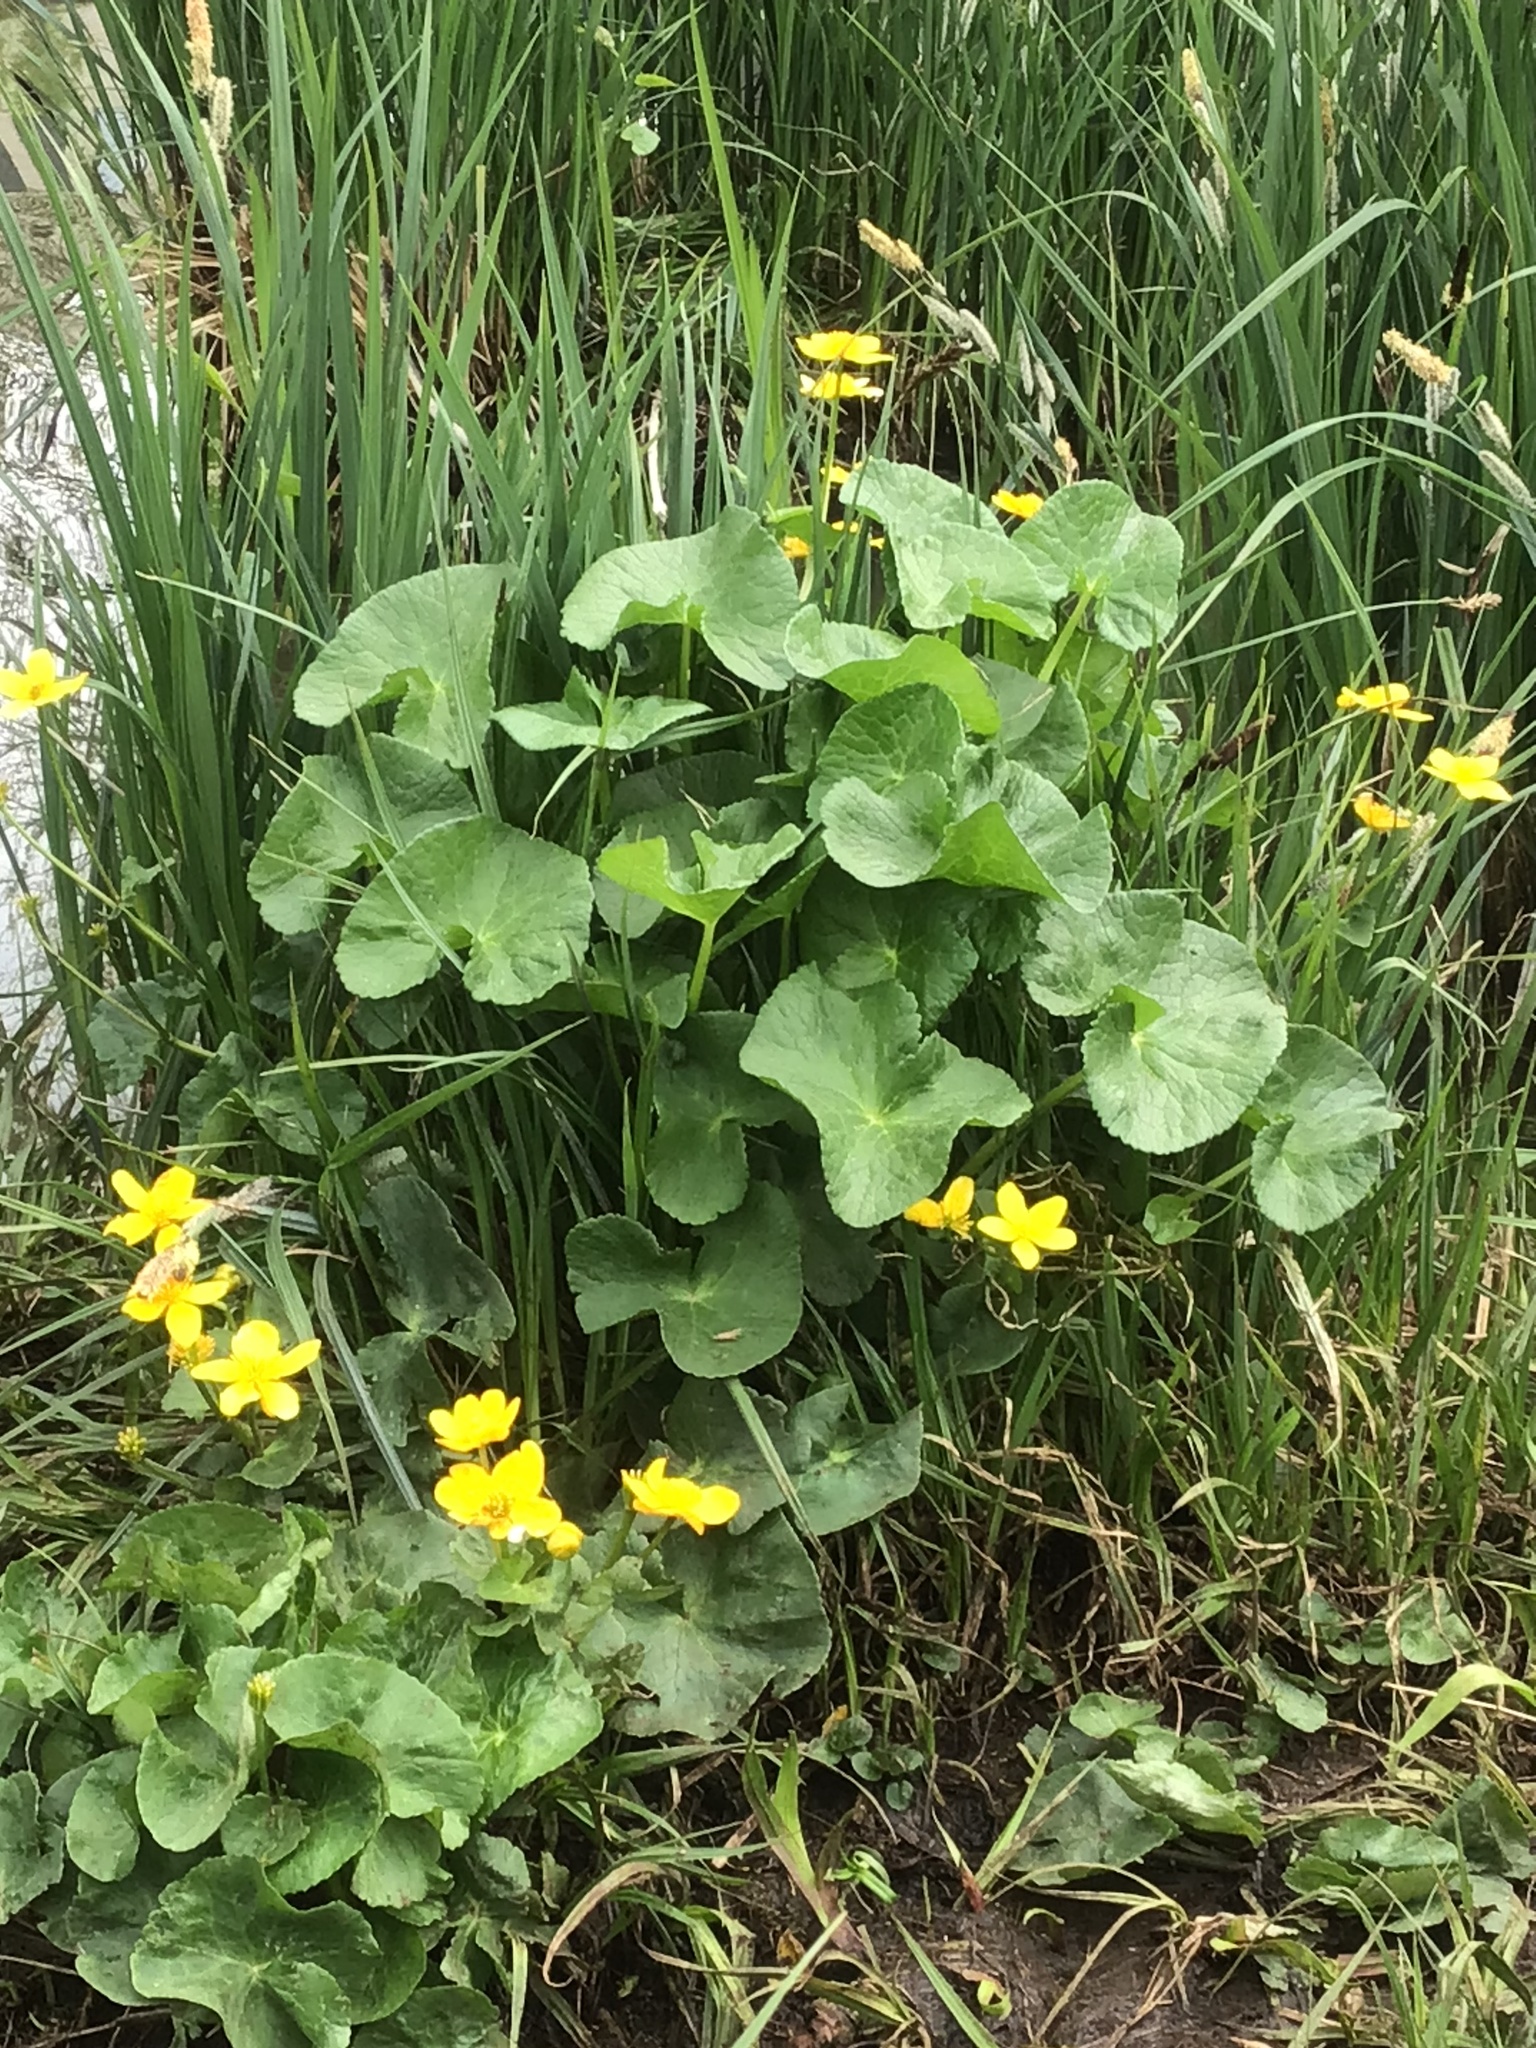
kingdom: Plantae
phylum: Tracheophyta
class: Magnoliopsida
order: Ranunculales
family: Ranunculaceae
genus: Caltha
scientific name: Caltha palustris
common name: Marsh marigold
